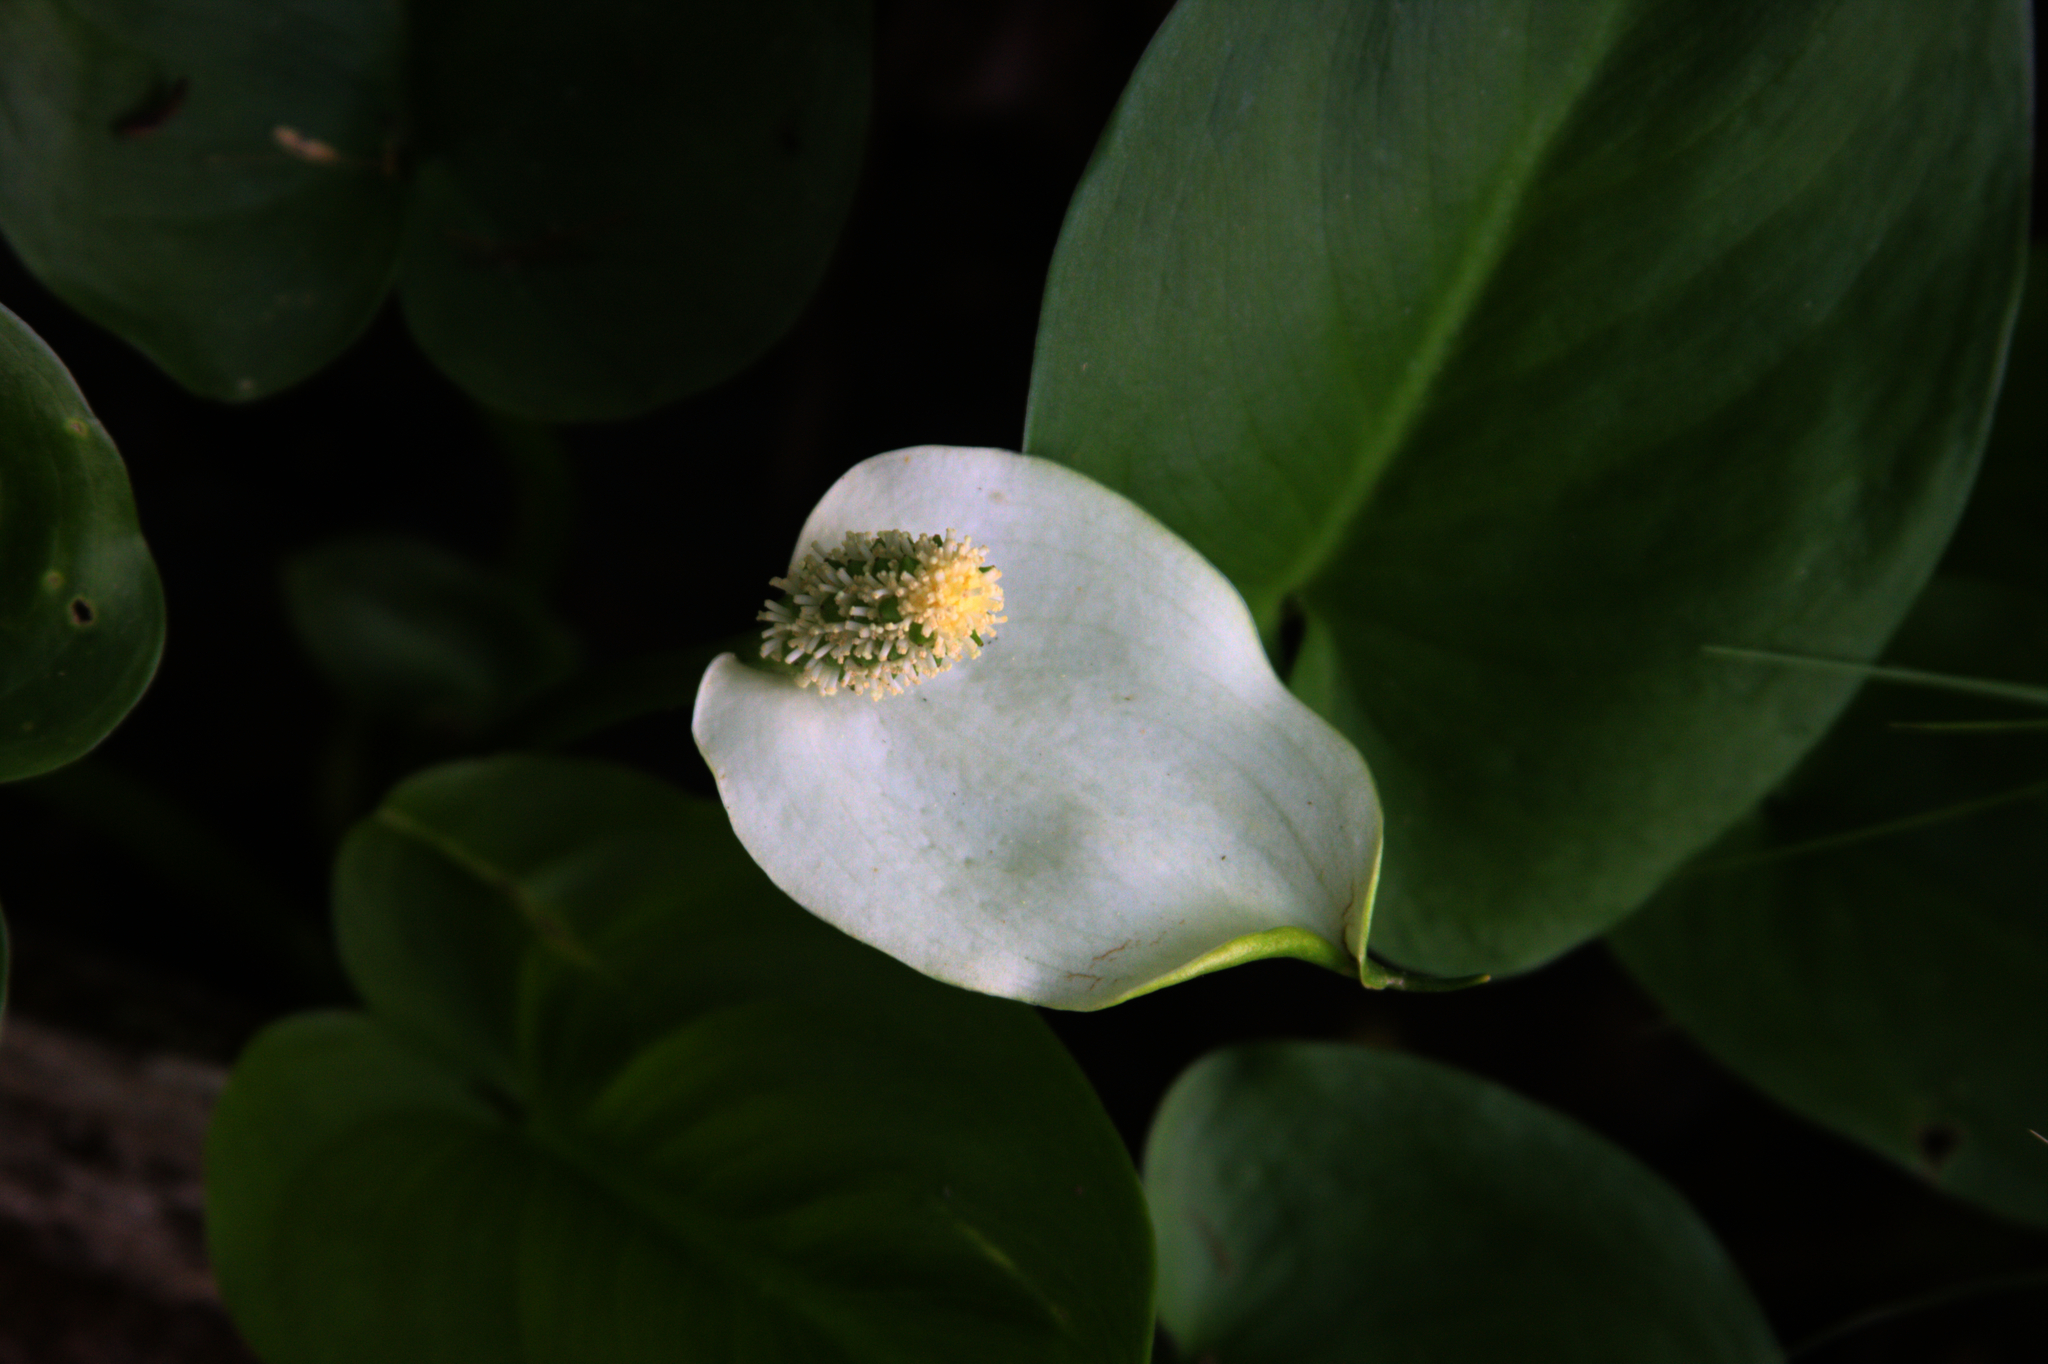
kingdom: Plantae
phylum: Tracheophyta
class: Liliopsida
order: Alismatales
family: Araceae
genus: Calla
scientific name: Calla palustris
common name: Bog arum
